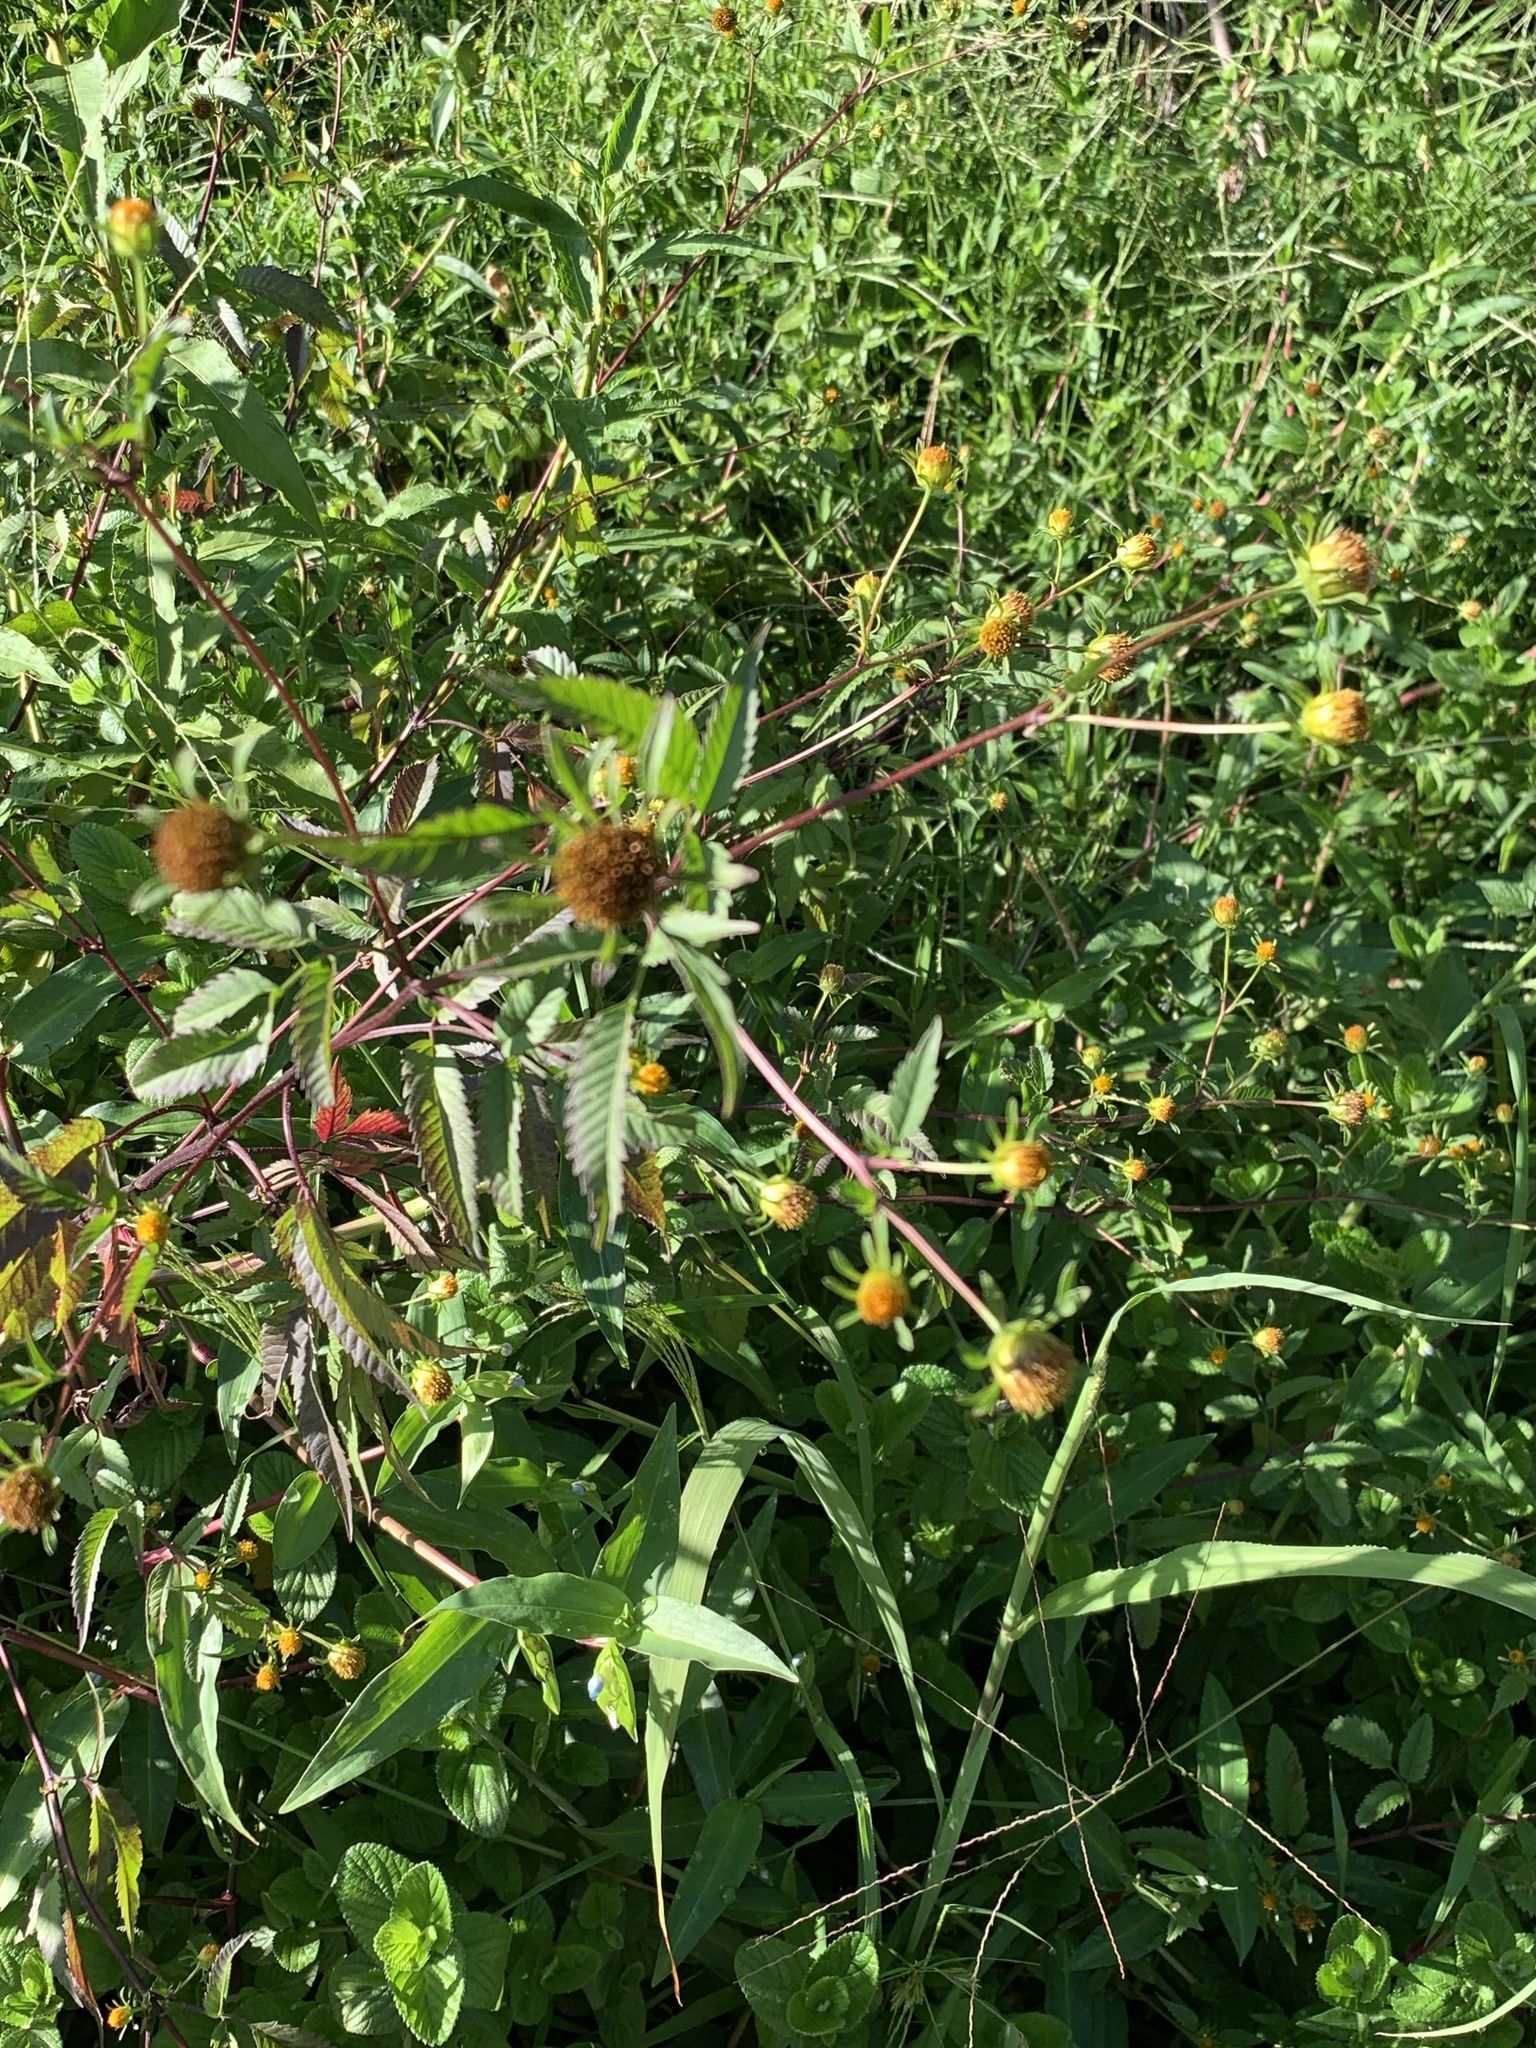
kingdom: Plantae
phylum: Tracheophyta
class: Magnoliopsida
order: Asterales
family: Asteraceae
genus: Bidens
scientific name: Bidens frondosa
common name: Beggarticks
